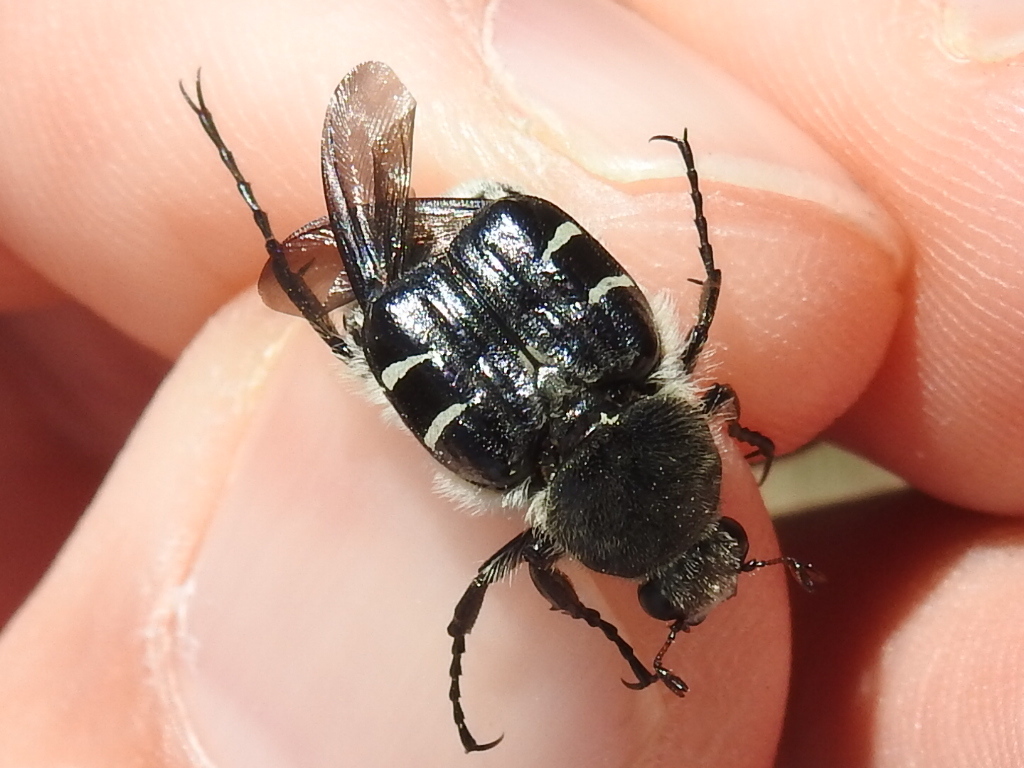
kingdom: Animalia
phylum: Arthropoda
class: Insecta
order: Coleoptera
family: Scarabaeidae
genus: Trichiotinus
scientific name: Trichiotinus texanus
